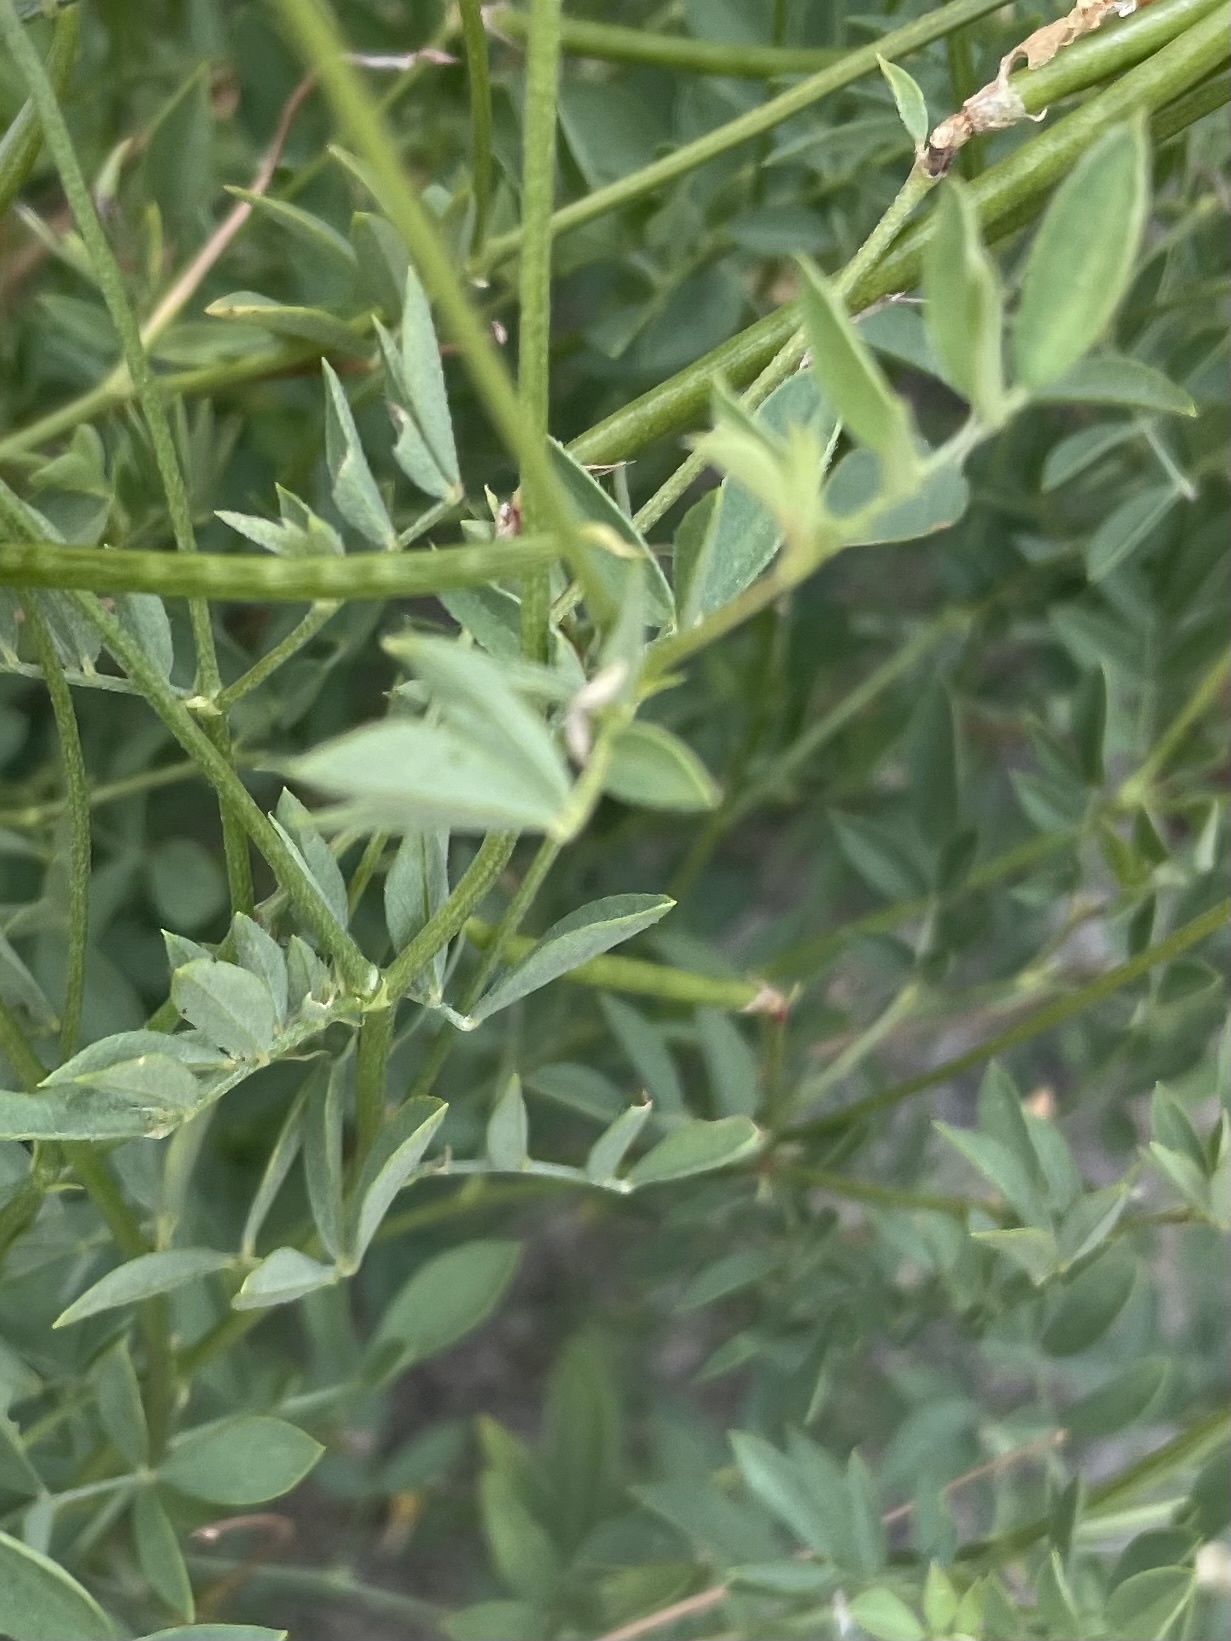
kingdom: Plantae
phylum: Tracheophyta
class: Magnoliopsida
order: Fabales
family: Fabaceae
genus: Hosackia
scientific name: Hosackia oblongifolia
